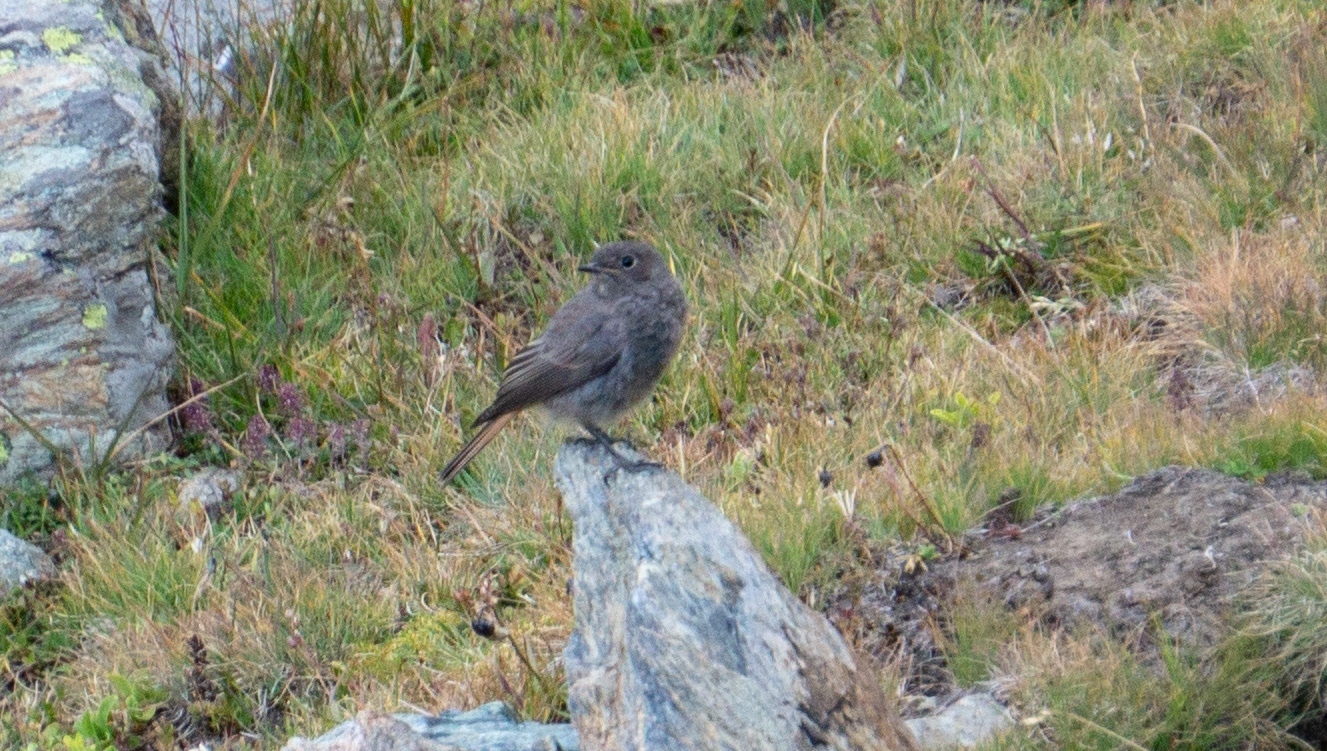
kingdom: Animalia
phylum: Chordata
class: Aves
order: Passeriformes
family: Muscicapidae
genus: Phoenicurus
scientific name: Phoenicurus ochruros
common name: Black redstart
